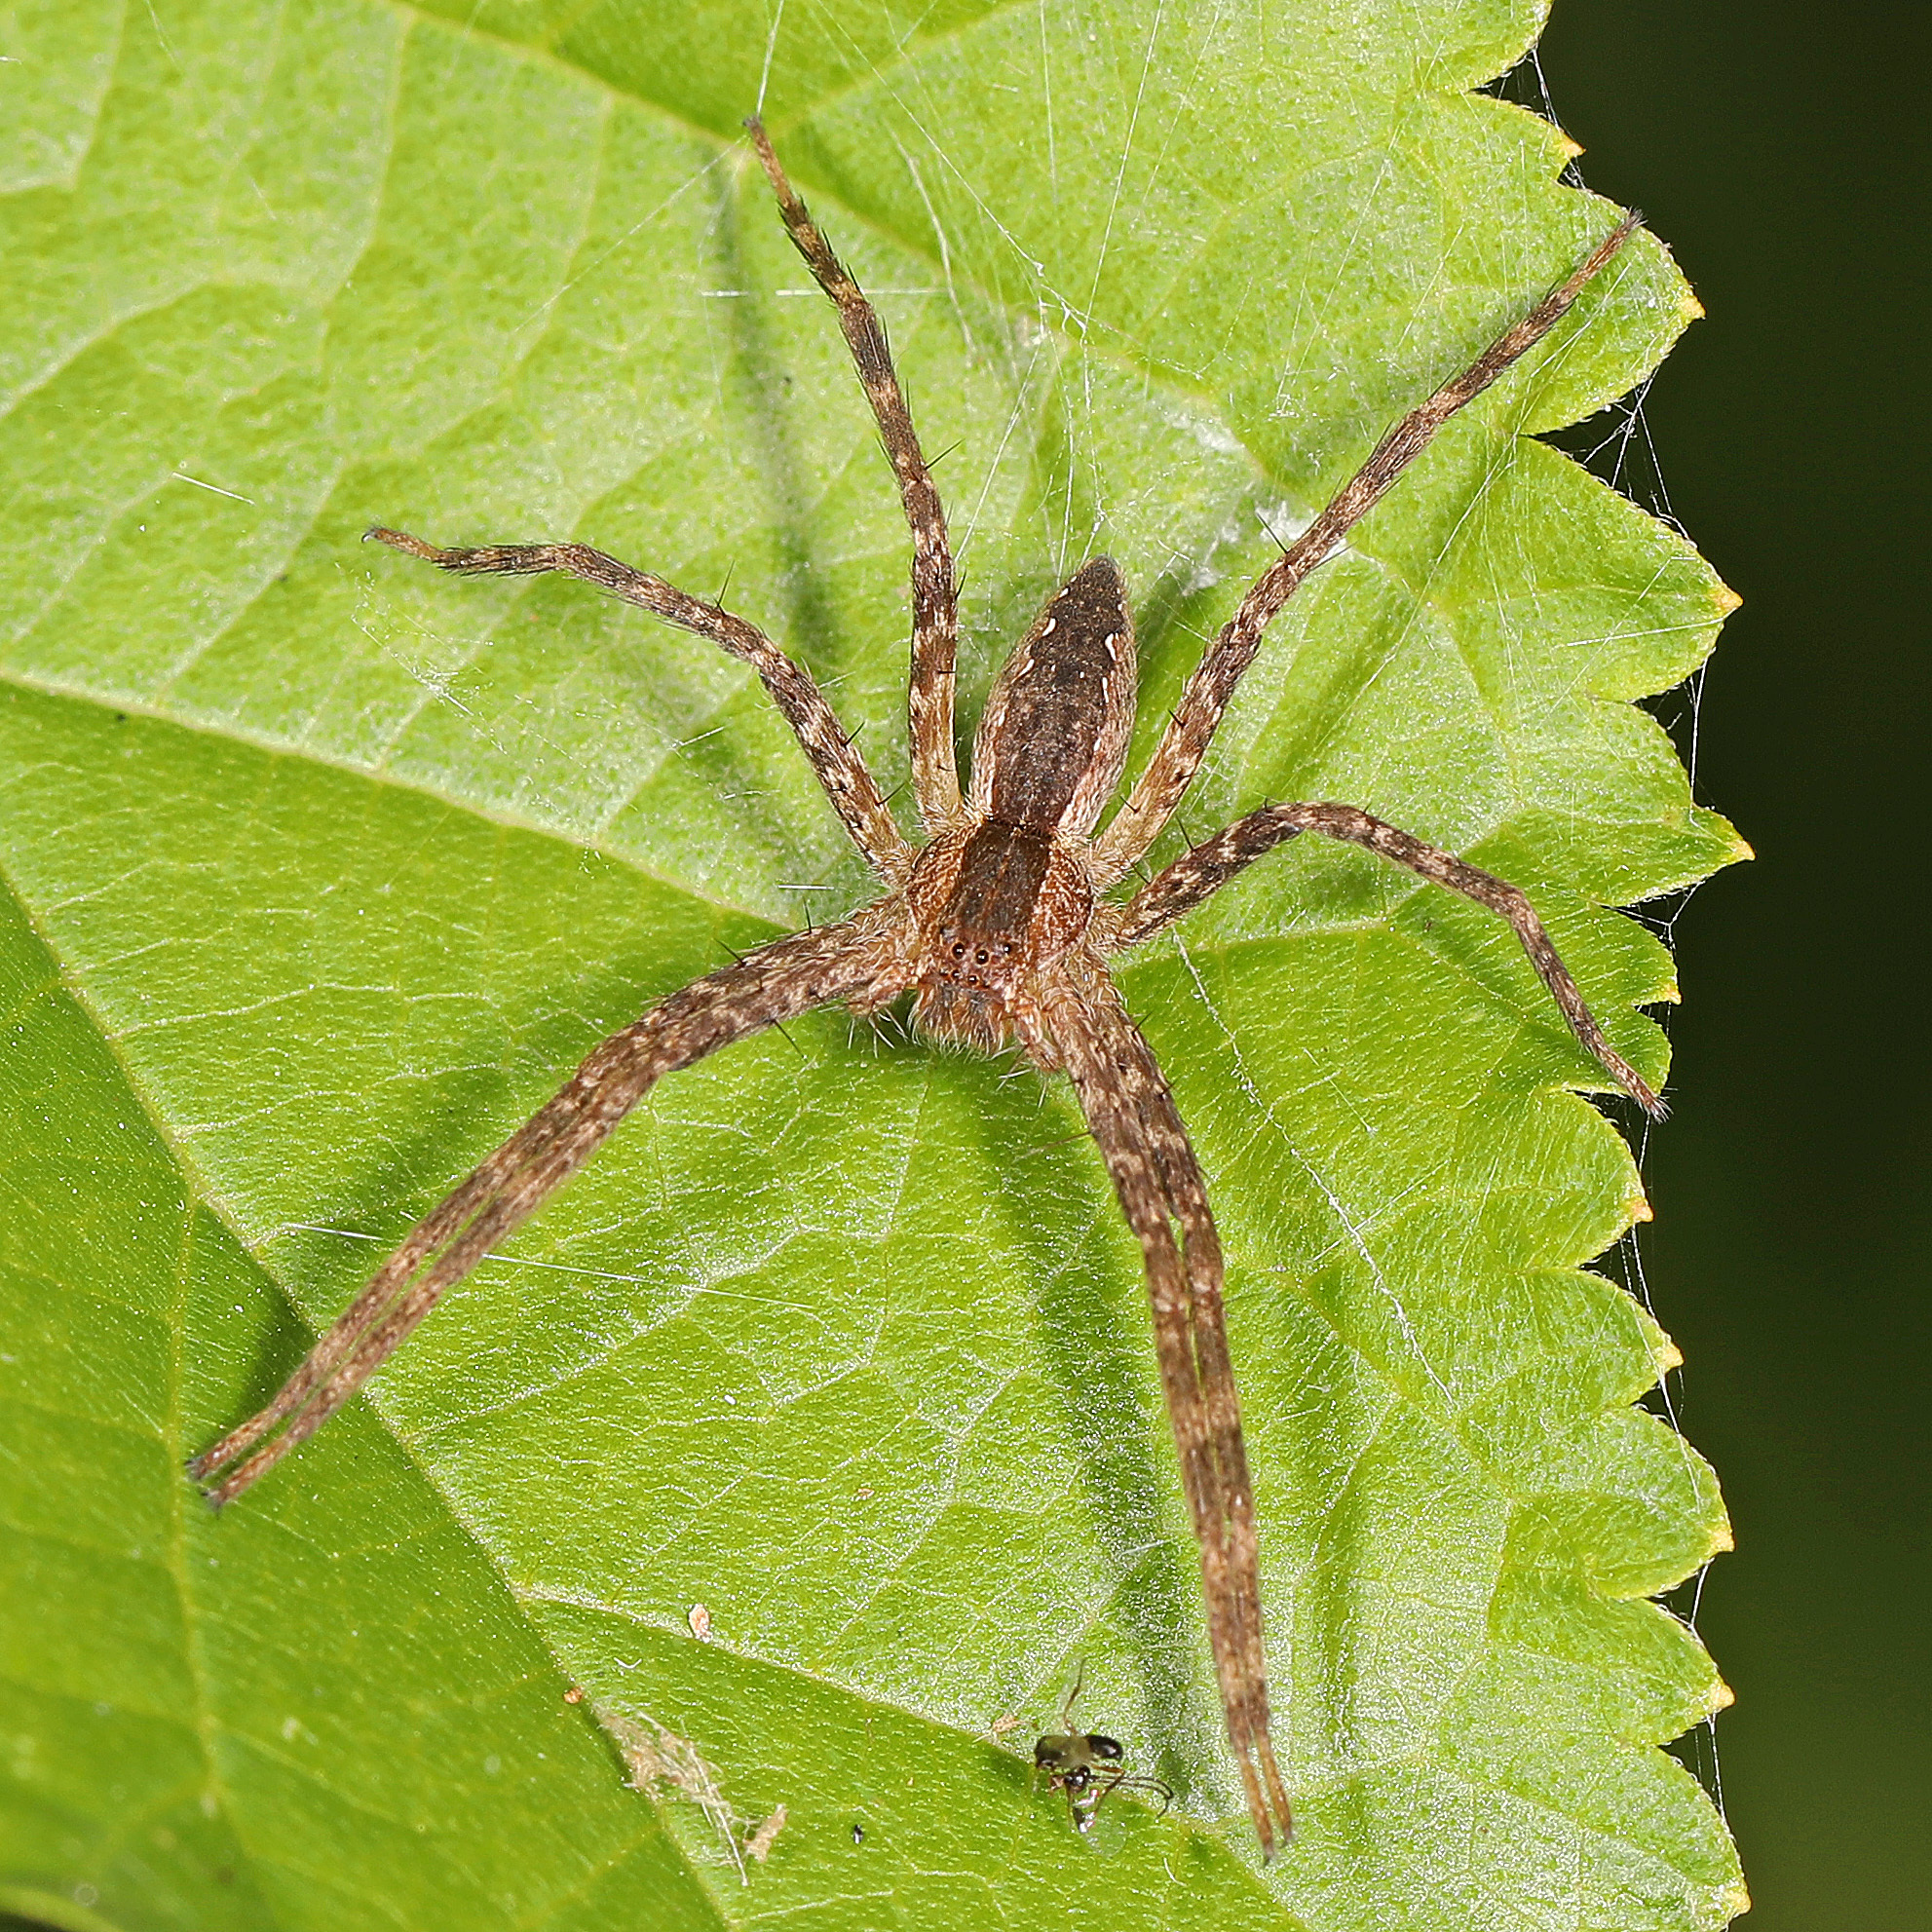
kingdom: Animalia
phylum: Arthropoda
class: Arachnida
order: Araneae
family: Pisauridae
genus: Pisaurina
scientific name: Pisaurina mira
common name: American nursery web spider
